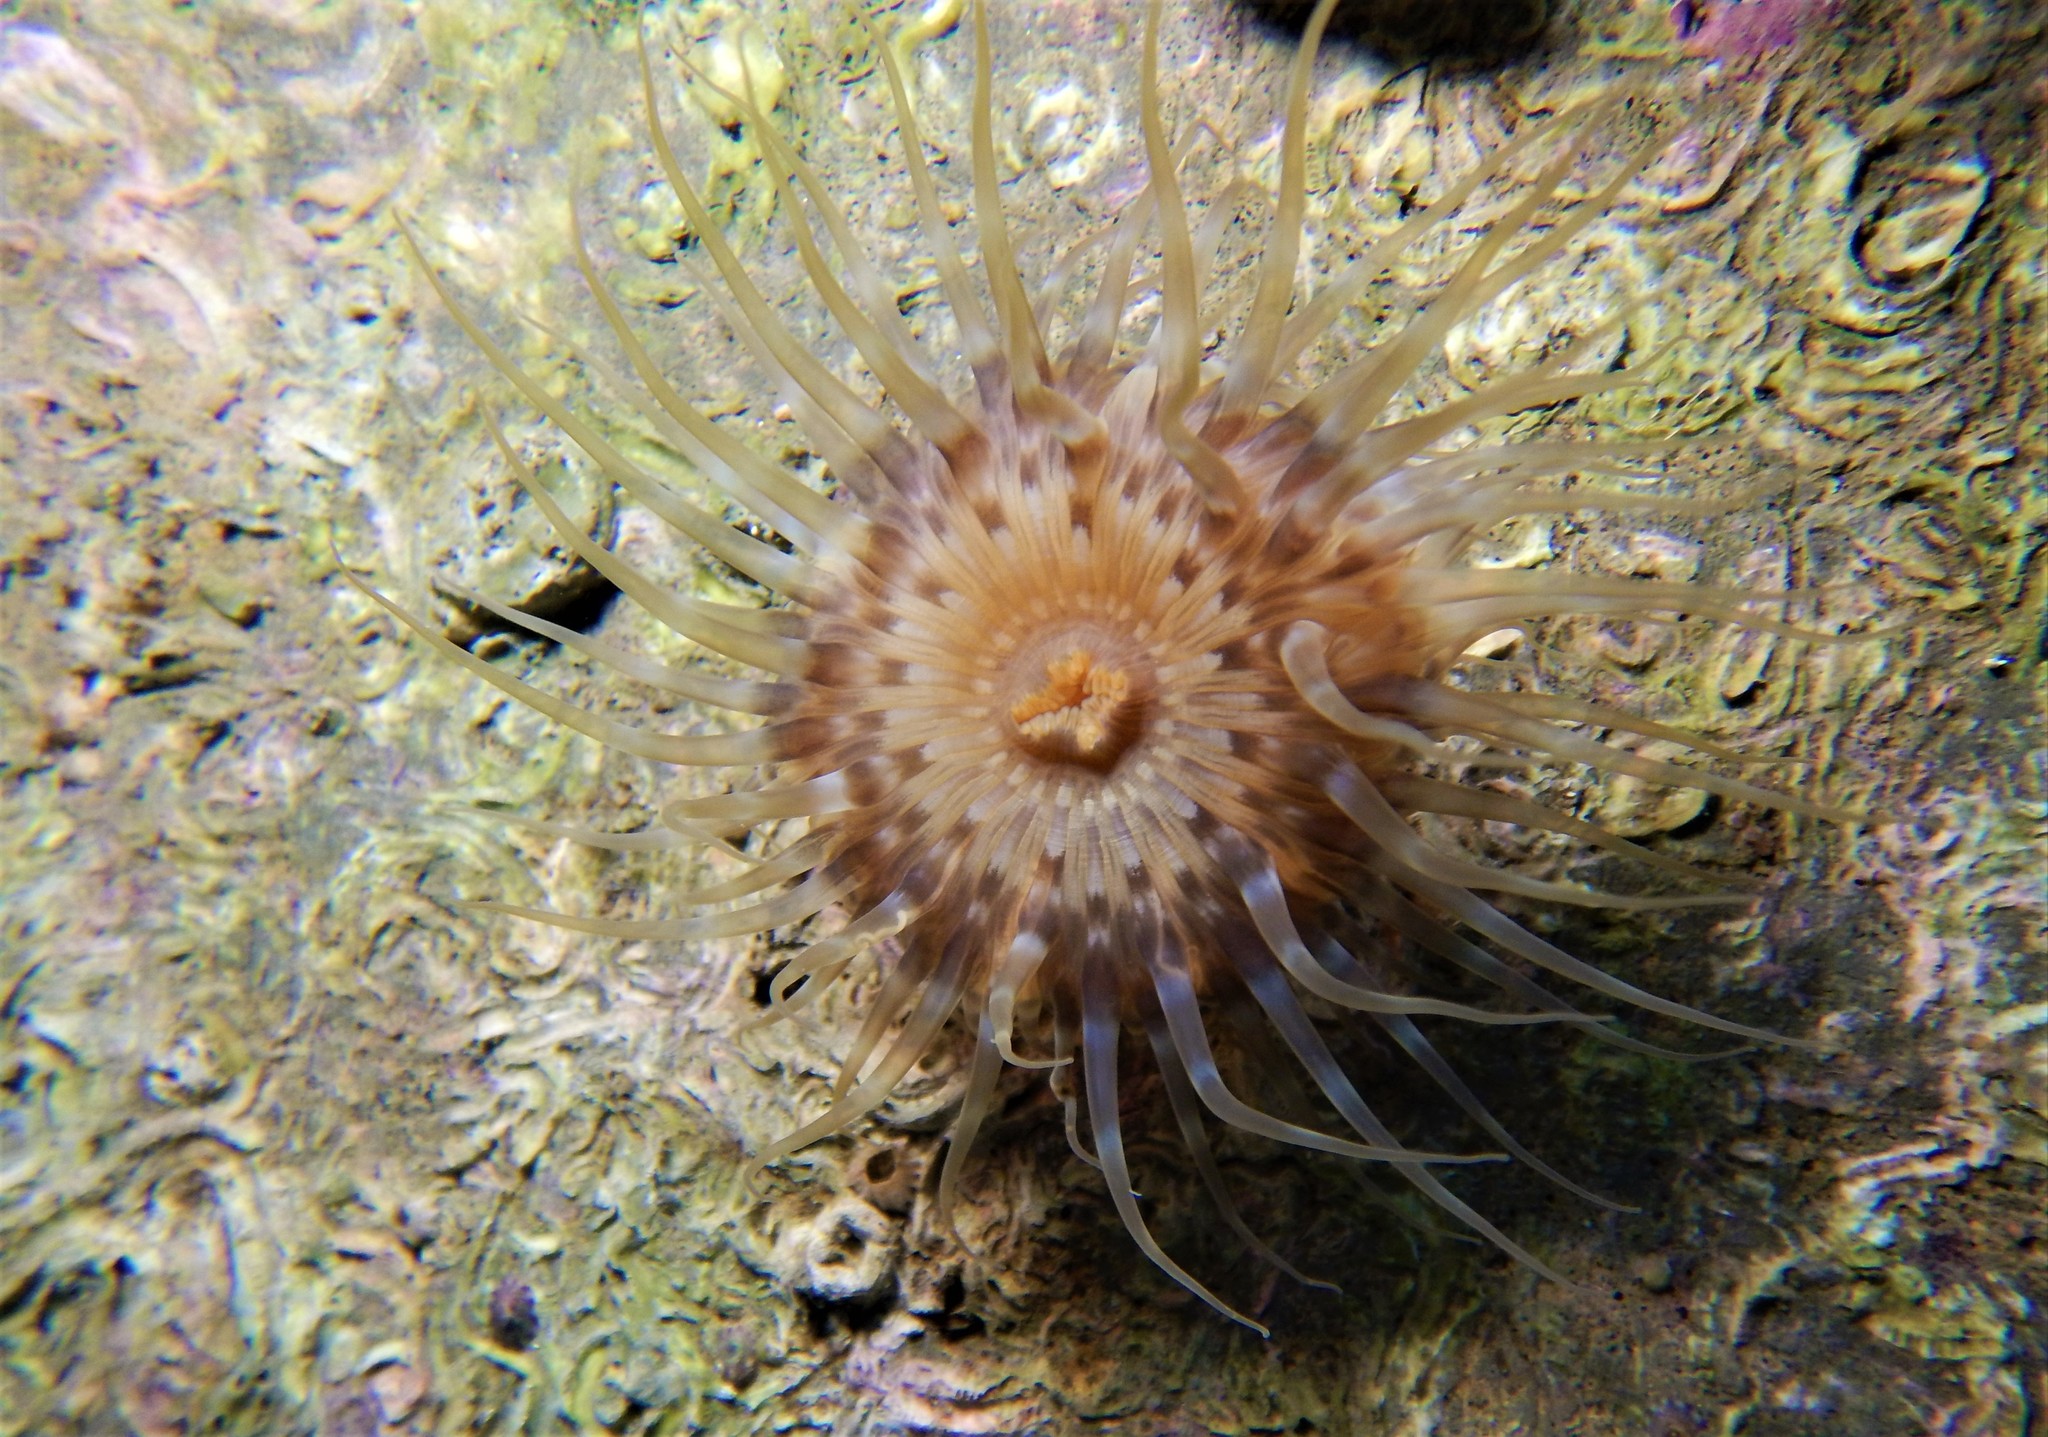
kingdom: Animalia
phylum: Cnidaria
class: Anthozoa
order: Actiniaria
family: Sagartiidae
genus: Cylista
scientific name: Cylista ornata
